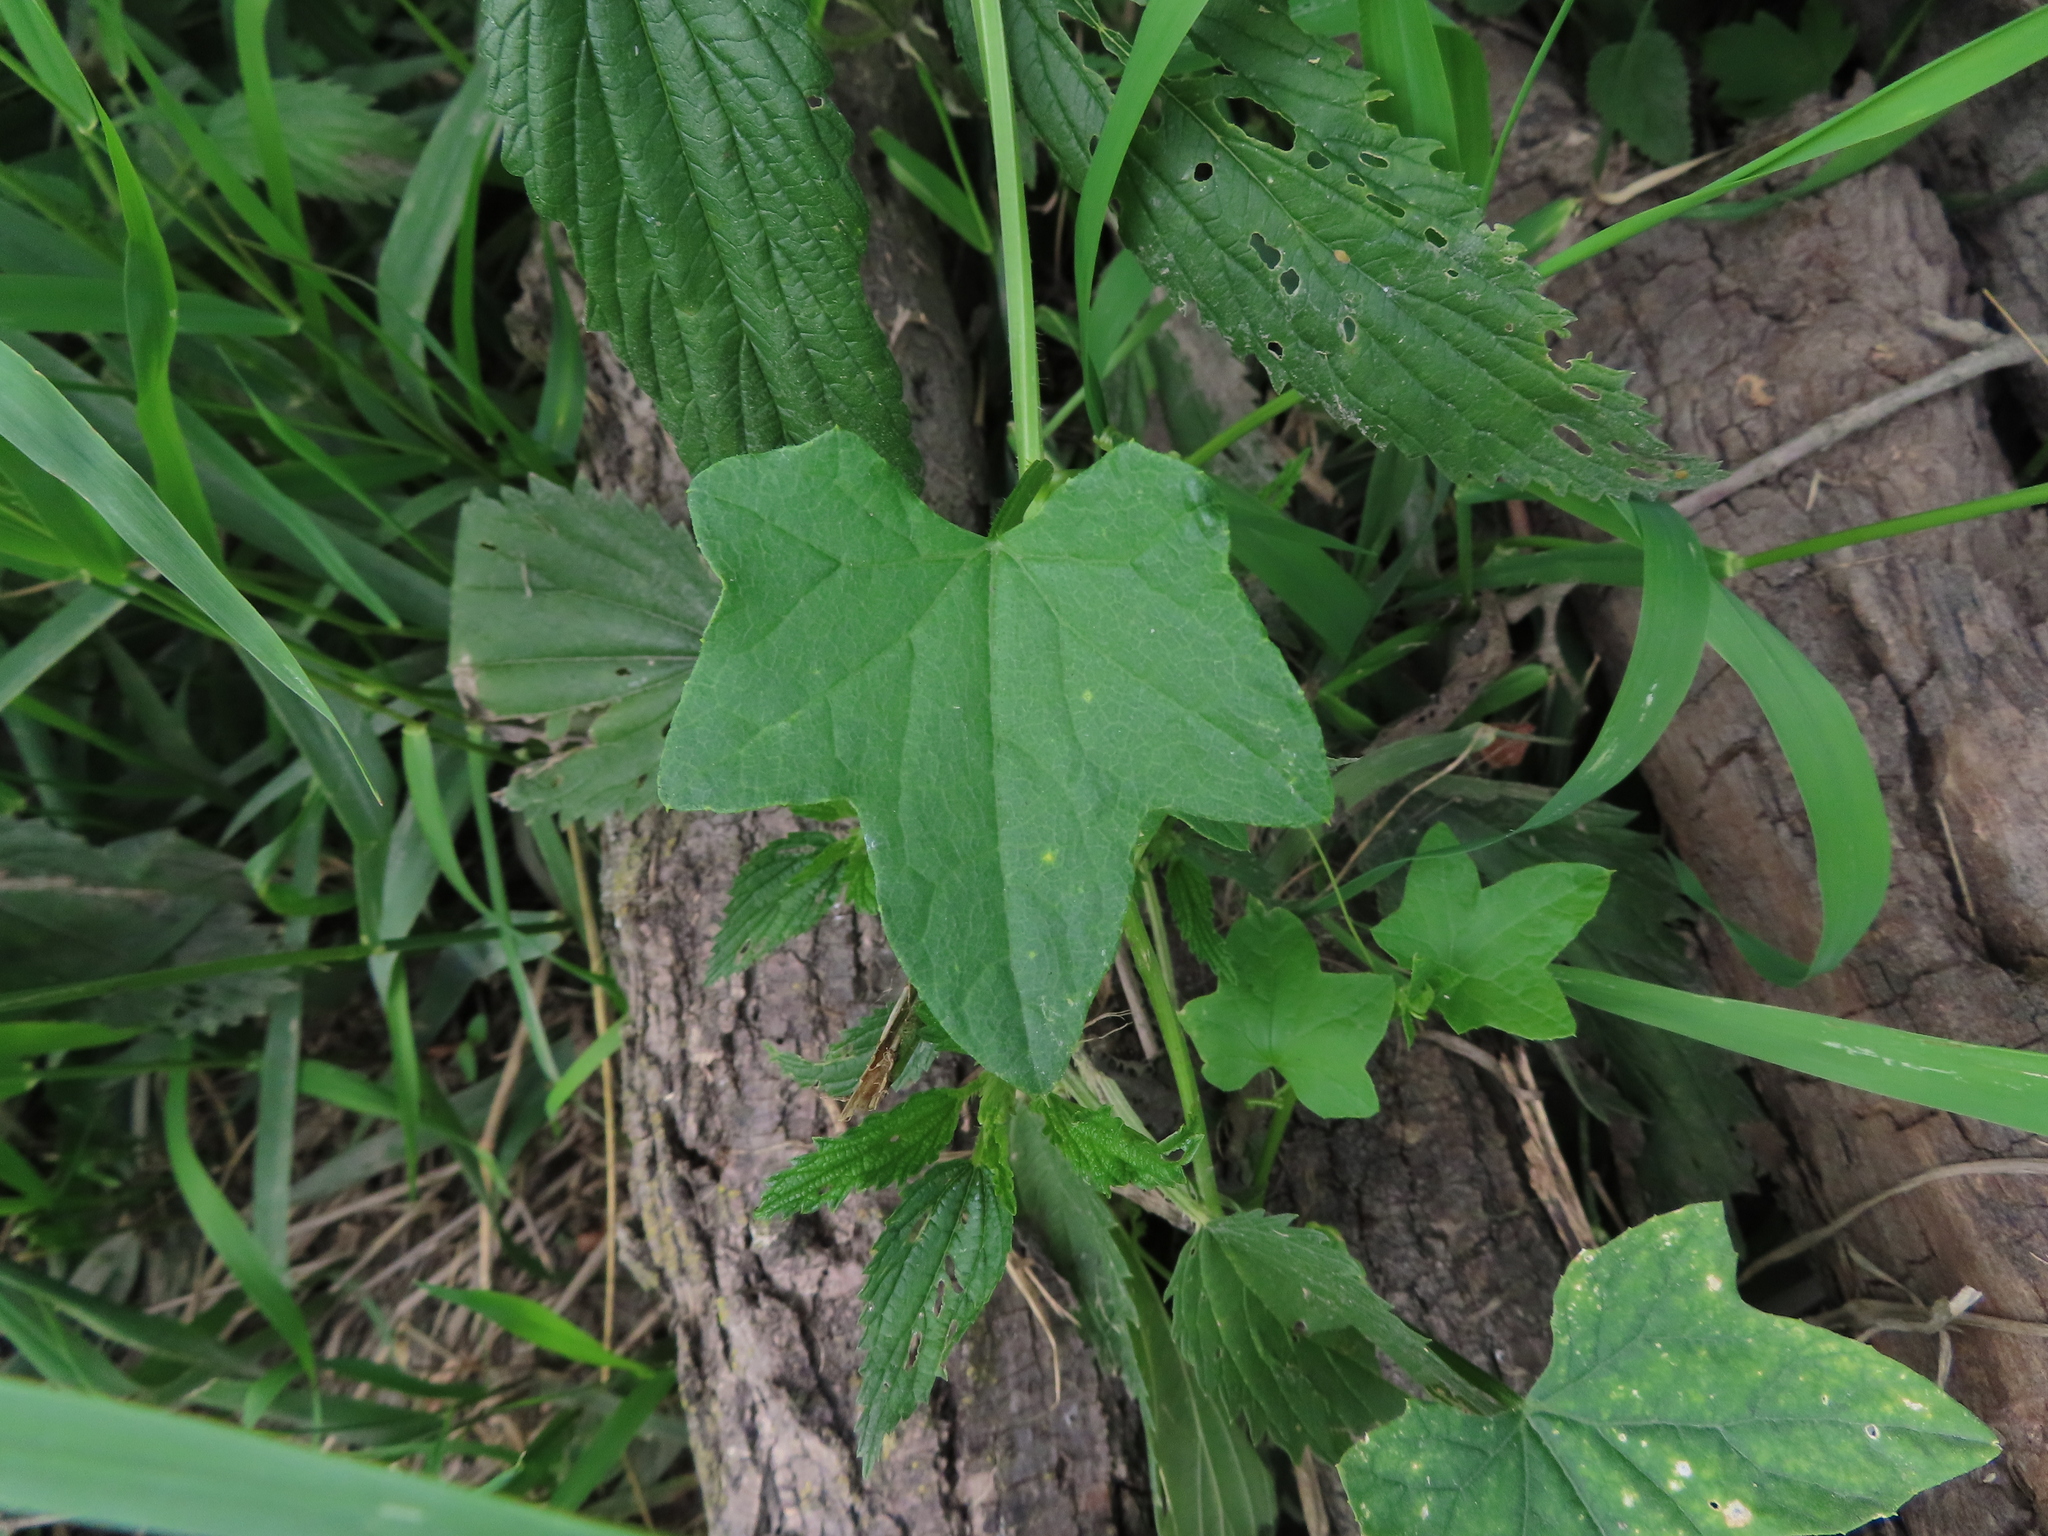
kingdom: Plantae
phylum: Tracheophyta
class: Magnoliopsida
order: Cucurbitales
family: Cucurbitaceae
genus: Echinocystis
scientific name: Echinocystis lobata
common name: Wild cucumber
